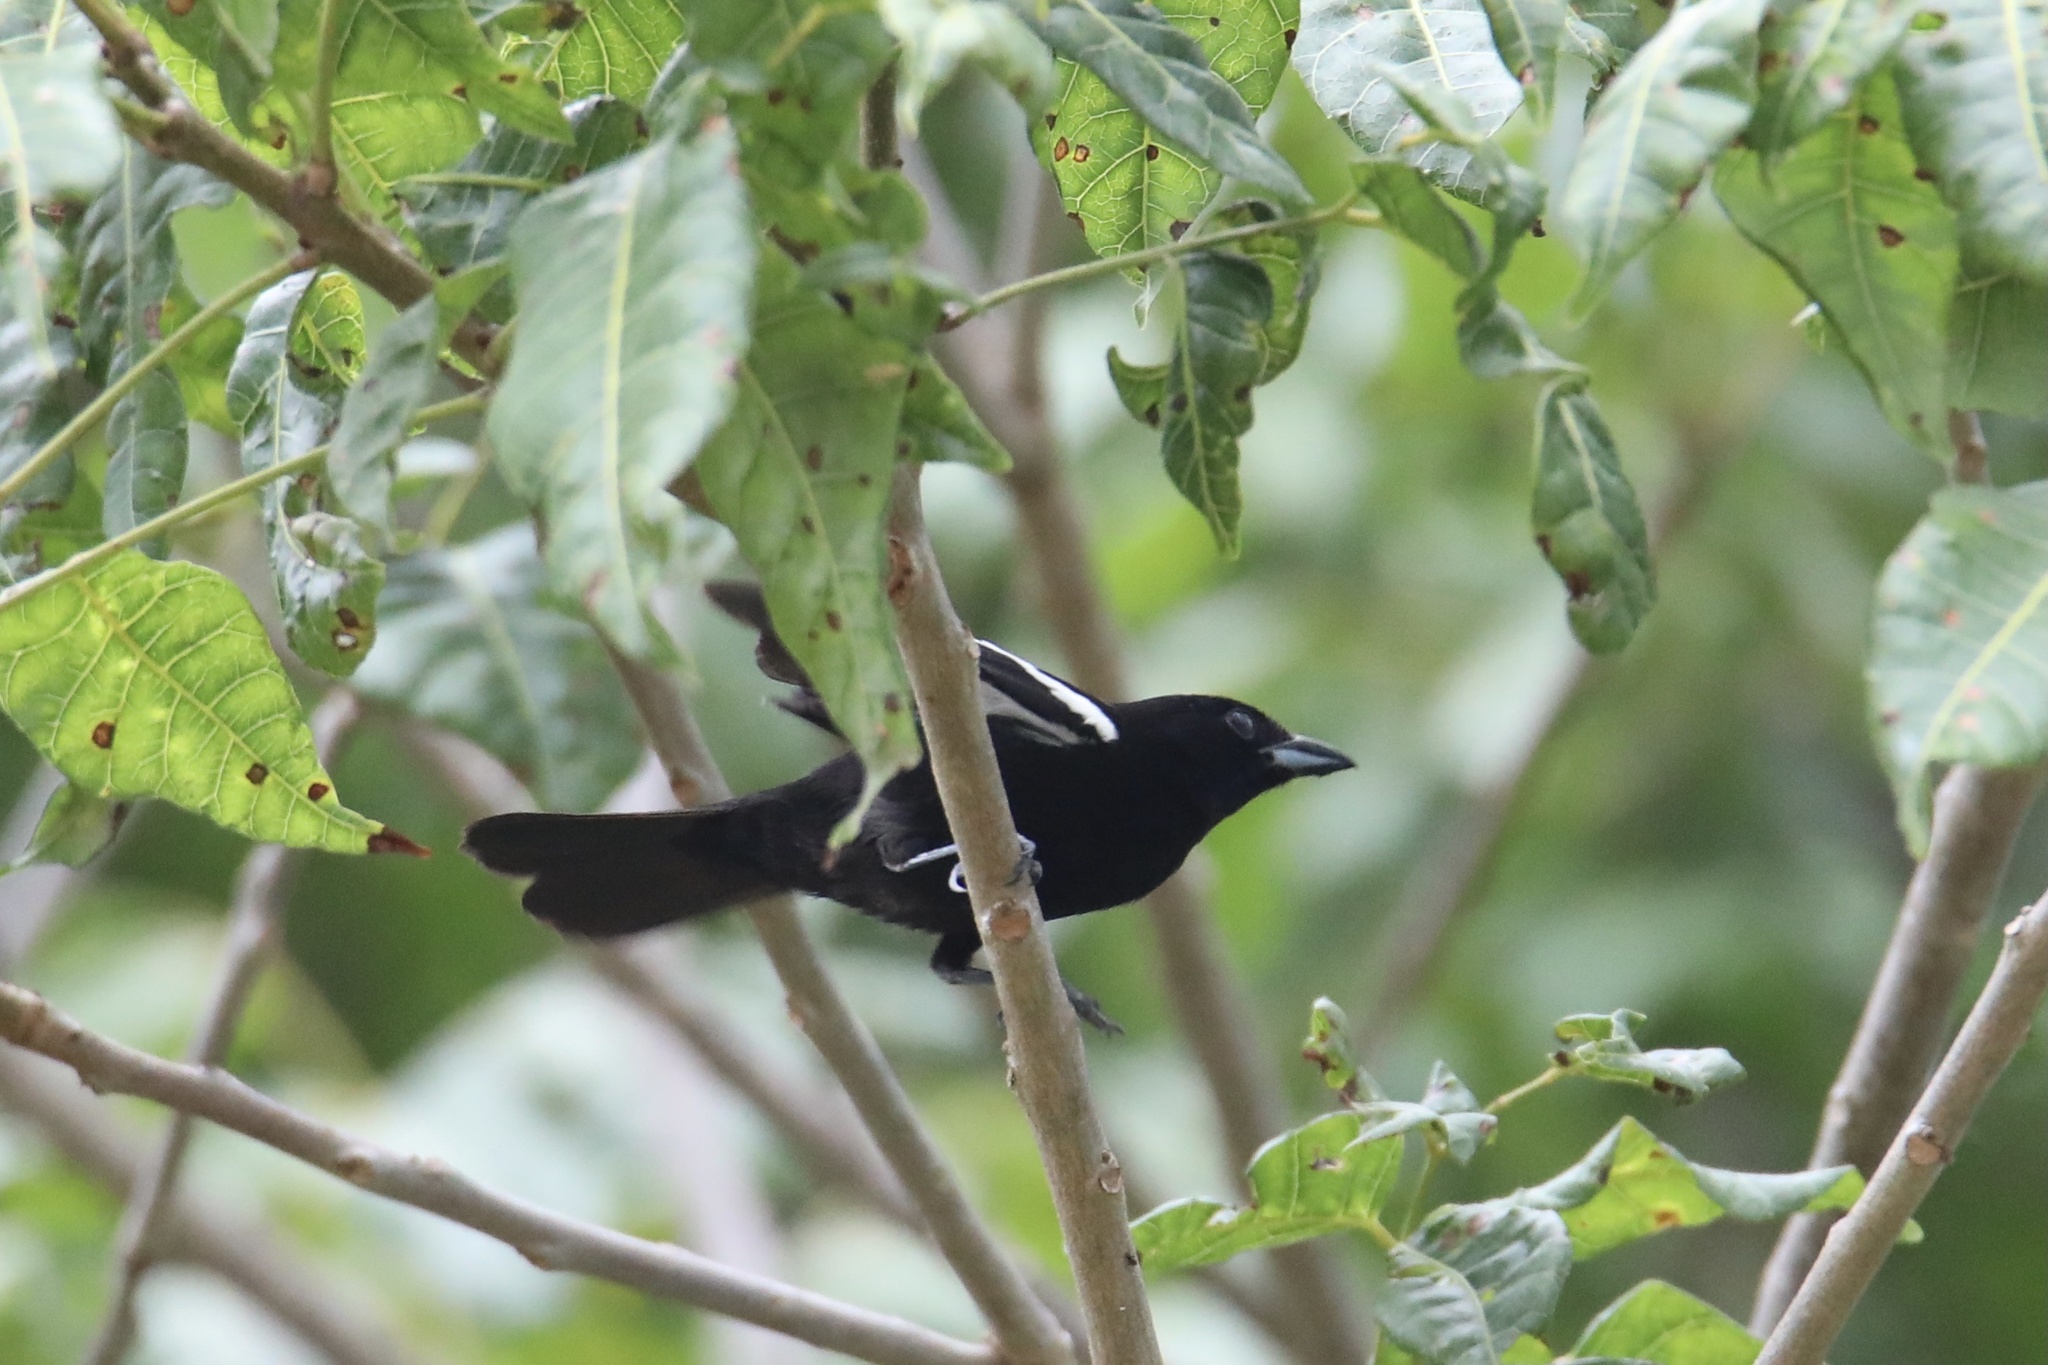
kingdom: Animalia
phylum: Chordata
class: Aves
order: Passeriformes
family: Thraupidae
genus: Loriotus
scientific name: Loriotus luctuosus
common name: White-shouldered tanager
